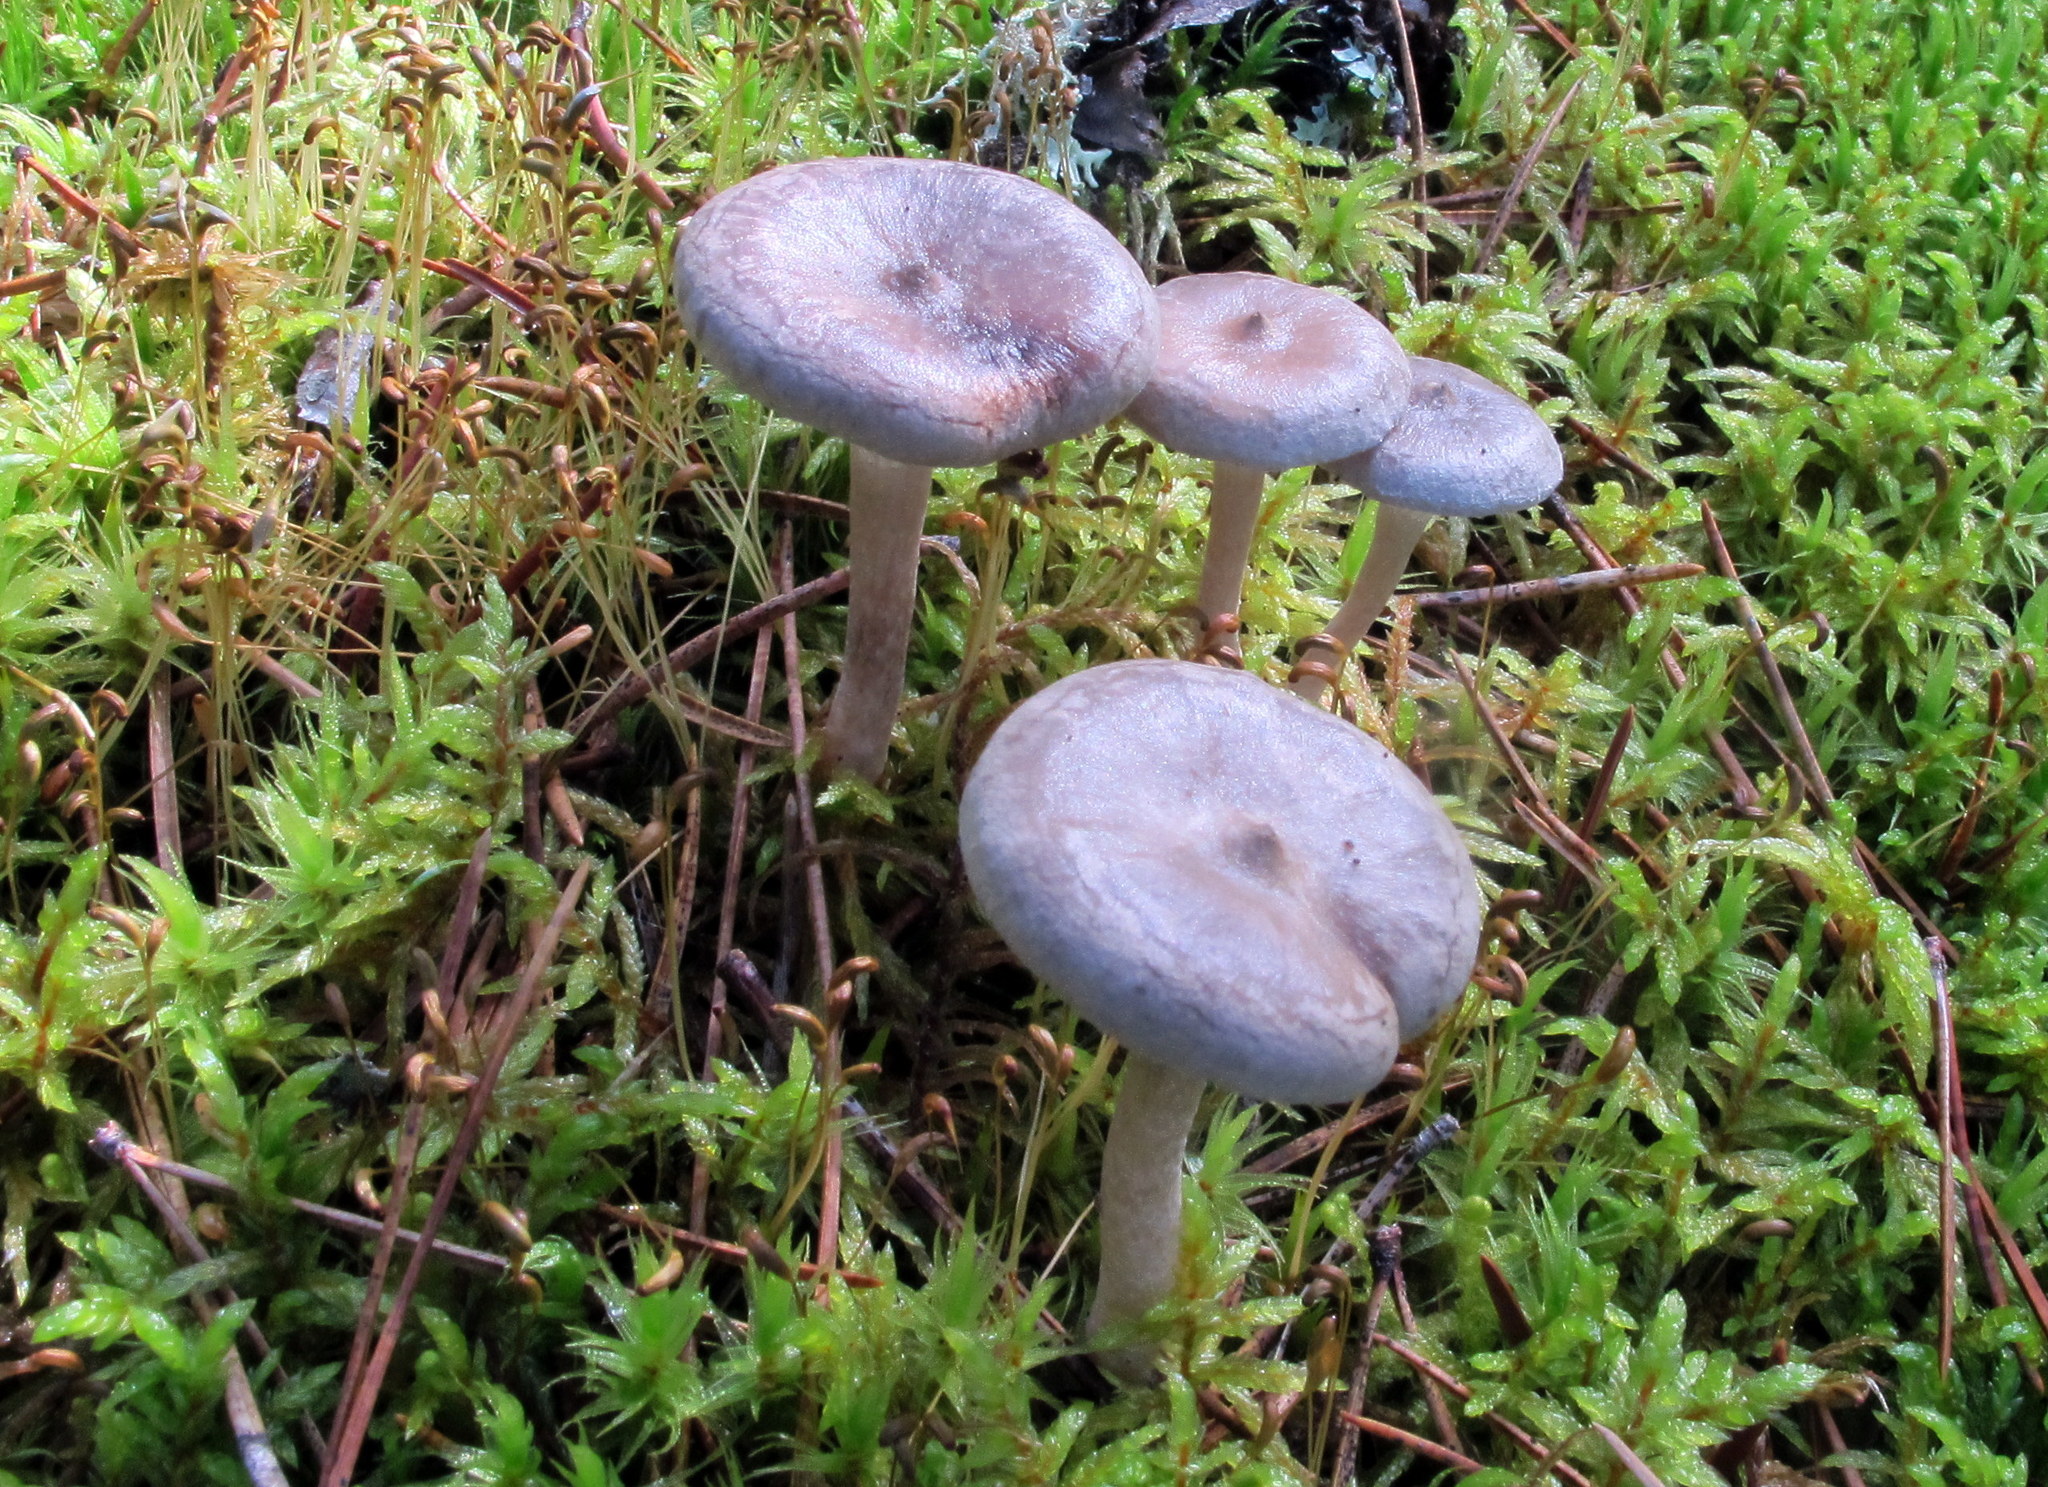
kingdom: Fungi
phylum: Basidiomycota
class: Agaricomycetes
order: Agaricales
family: Hygrophoraceae
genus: Cantharellula
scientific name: Cantharellula umbonata
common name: The humpback
